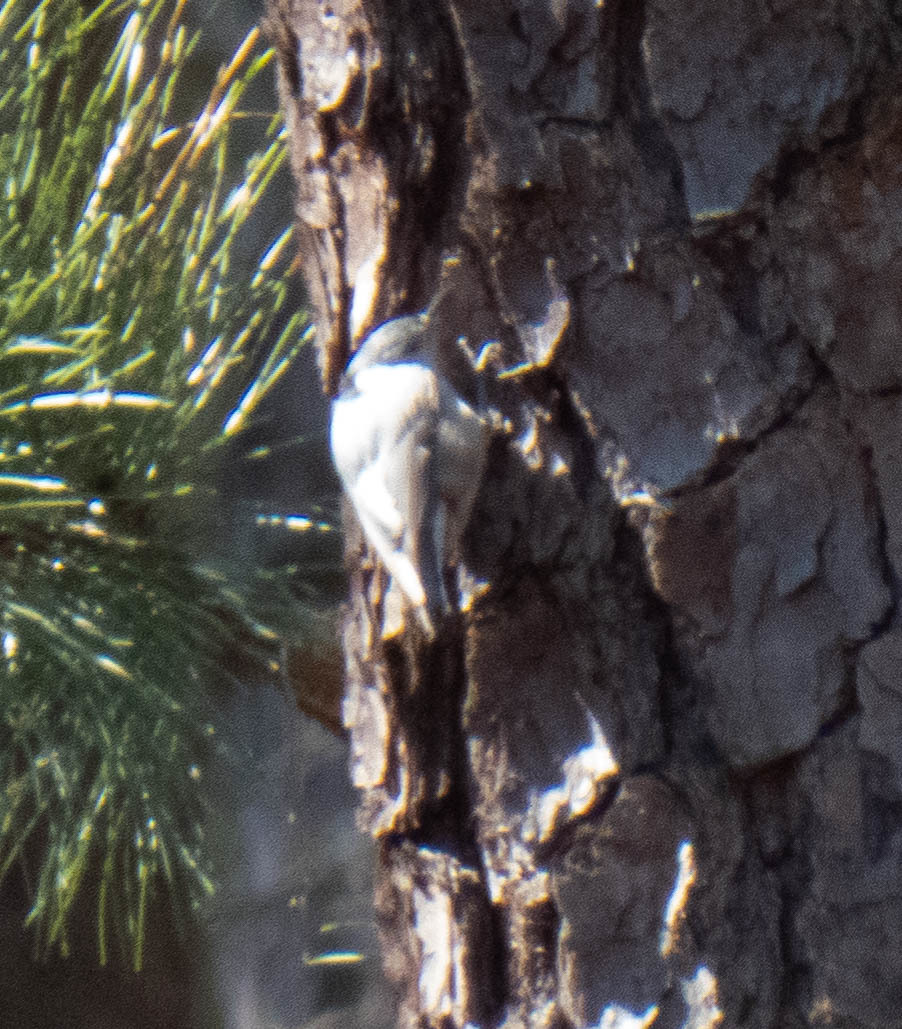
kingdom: Animalia
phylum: Chordata
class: Aves
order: Passeriformes
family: Sittidae
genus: Sitta
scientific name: Sitta carolinensis
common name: White-breasted nuthatch
